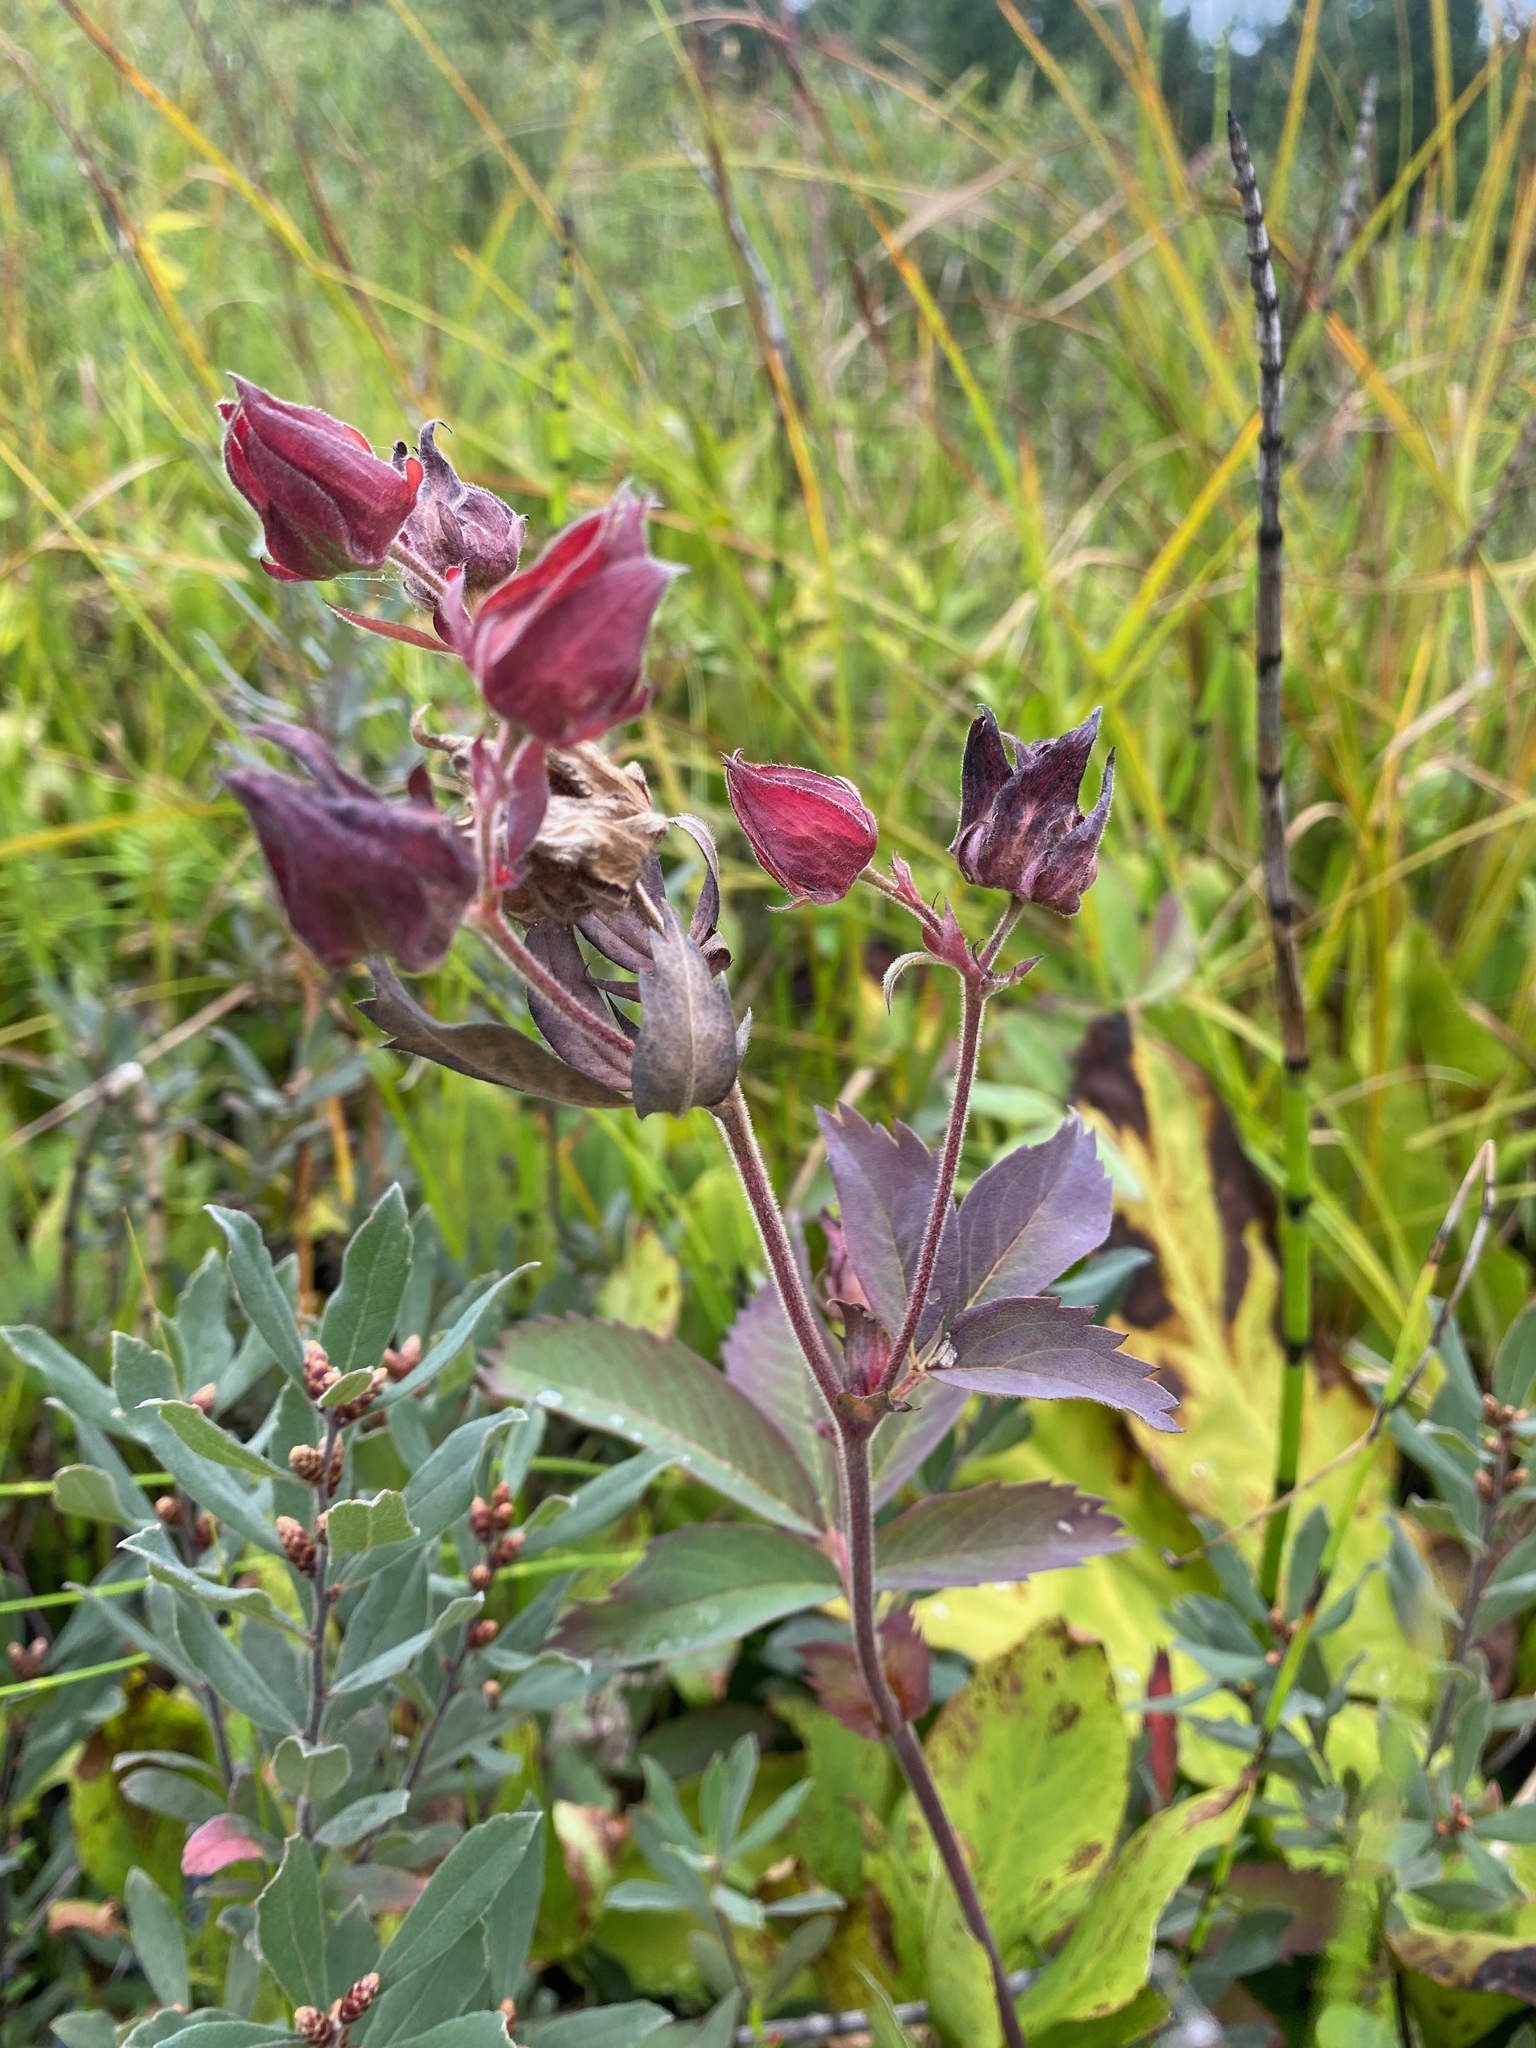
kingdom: Plantae
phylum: Tracheophyta
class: Magnoliopsida
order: Rosales
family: Rosaceae
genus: Comarum
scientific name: Comarum palustre
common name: Marsh cinquefoil
